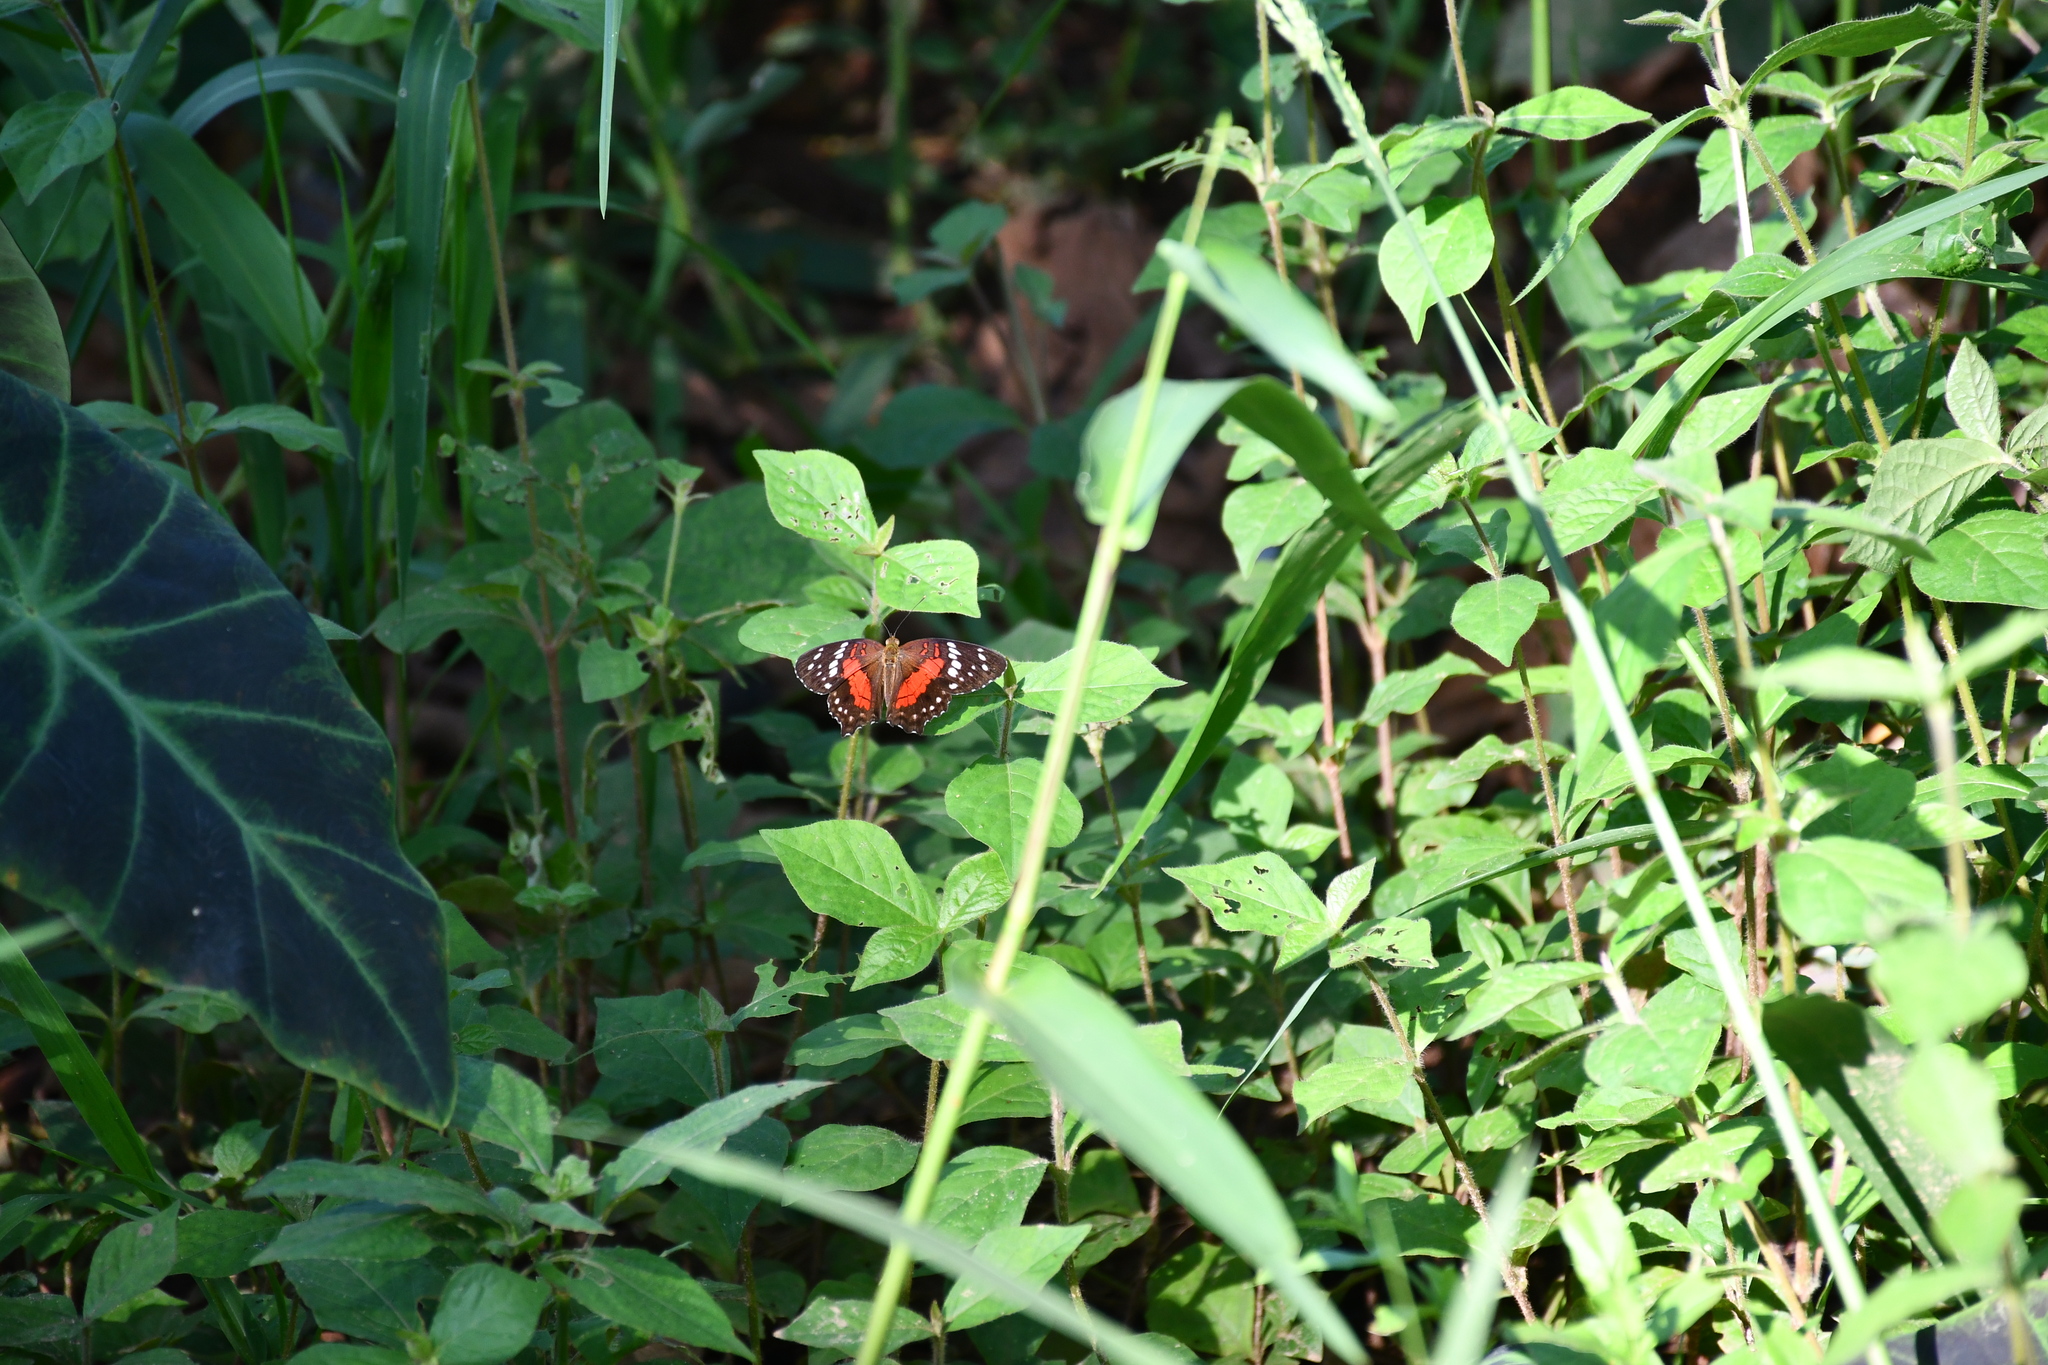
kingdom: Animalia
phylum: Arthropoda
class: Insecta
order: Lepidoptera
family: Nymphalidae
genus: Anartia
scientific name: Anartia amathea
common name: Red peacock
